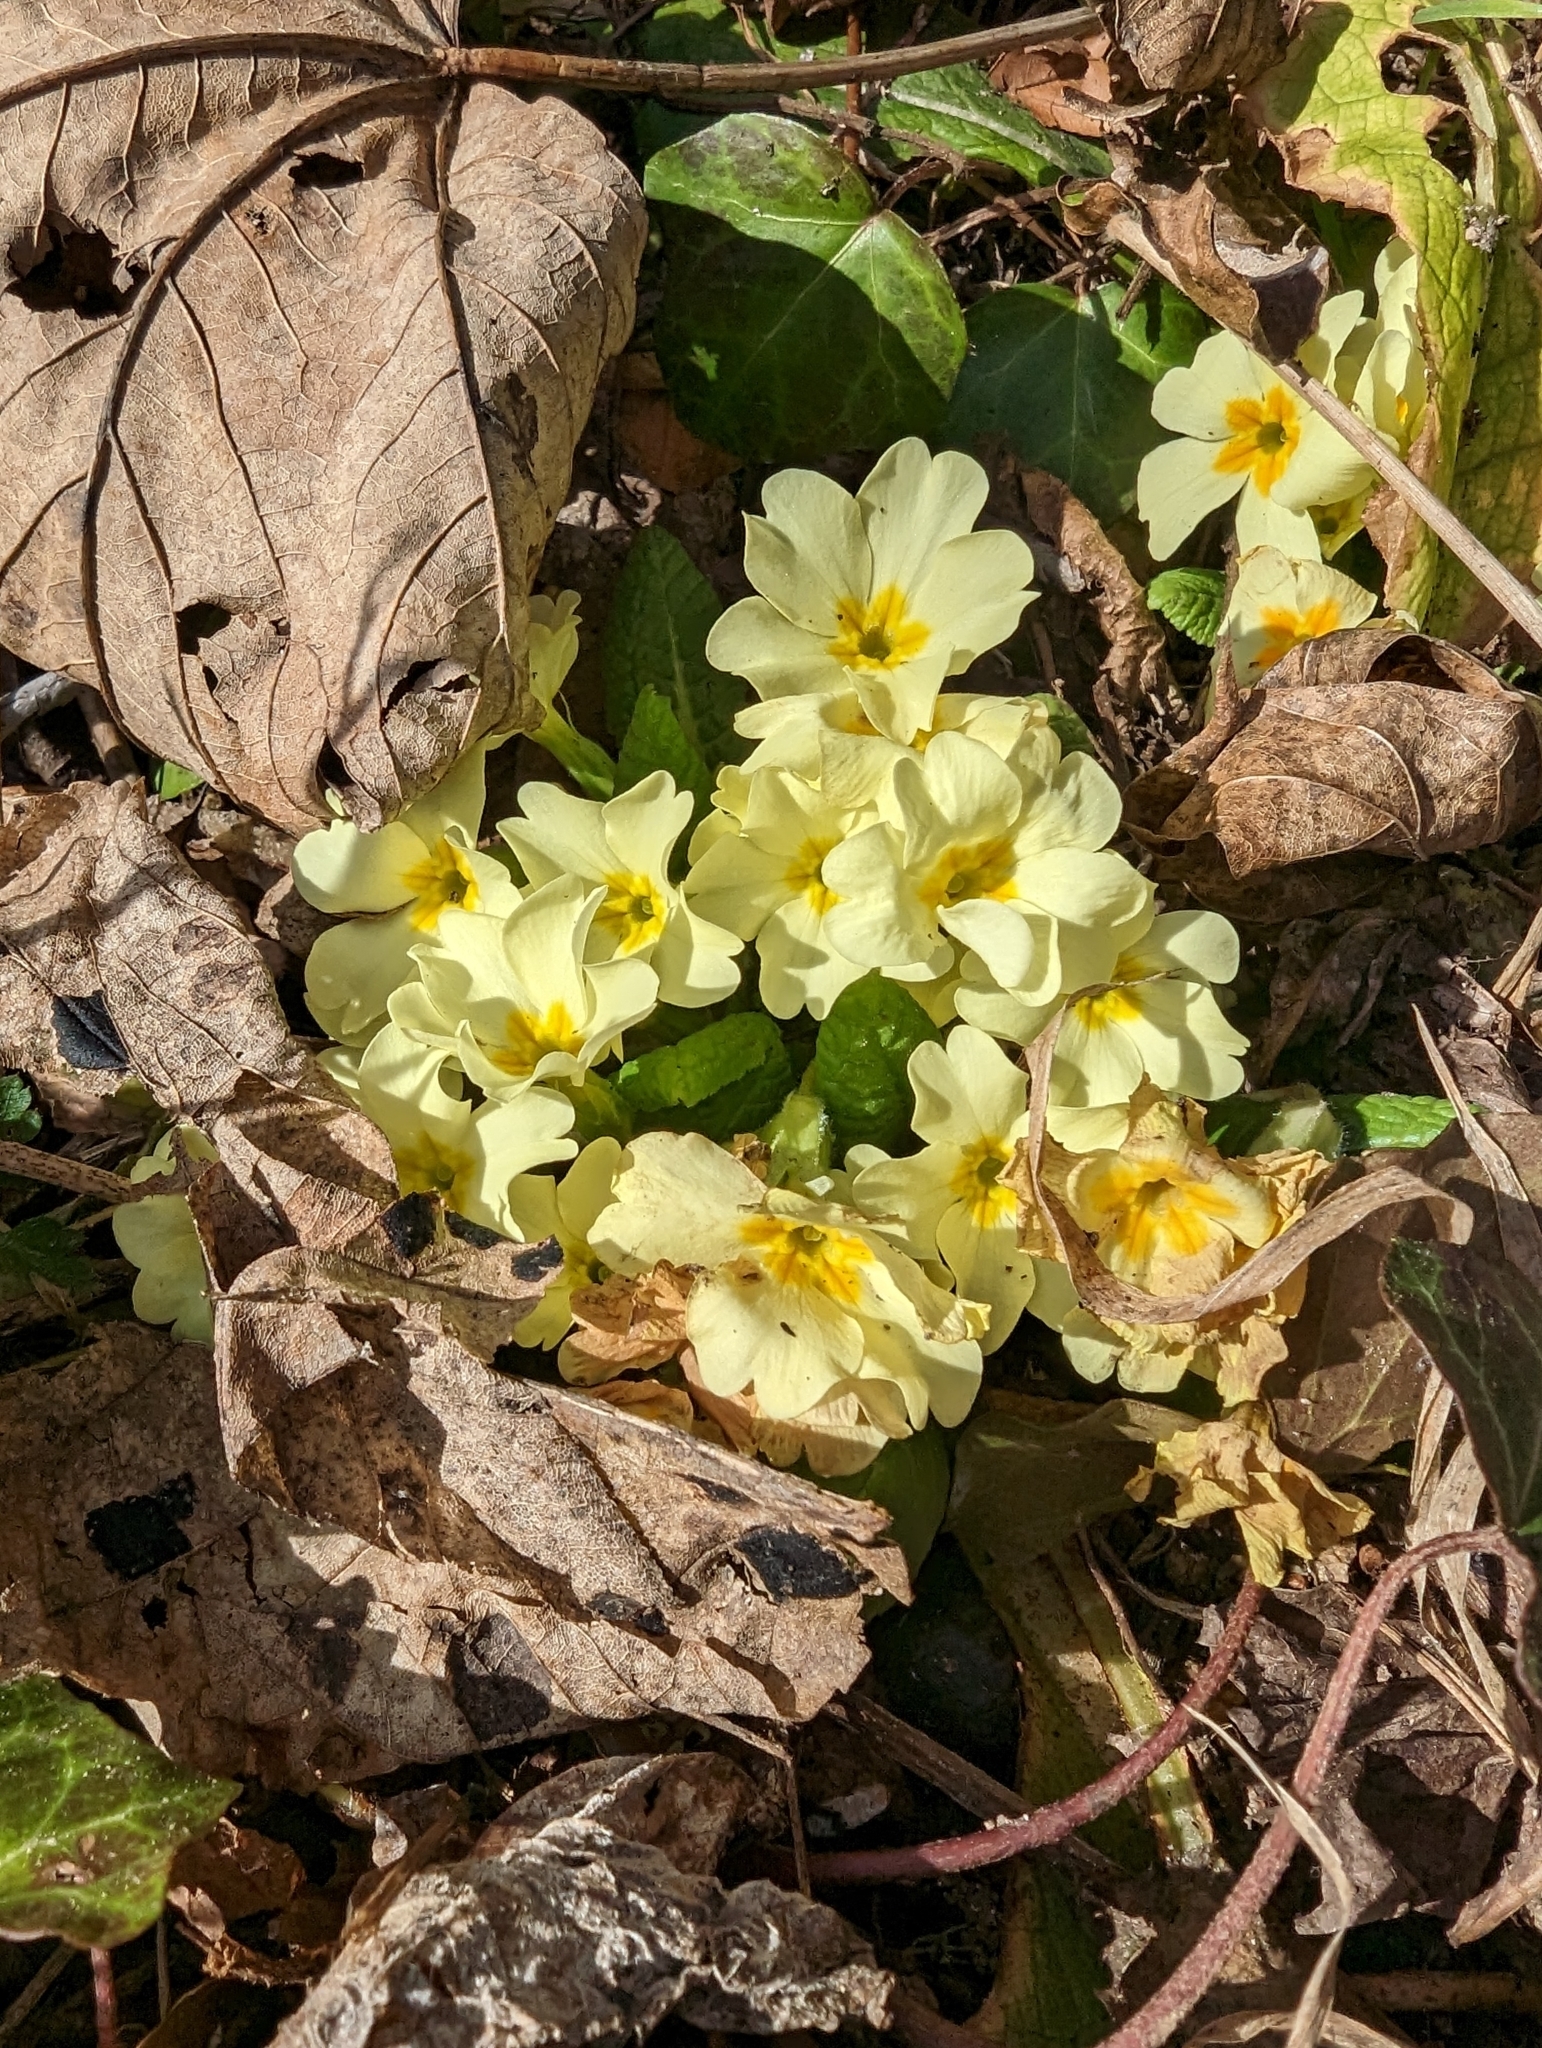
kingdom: Plantae
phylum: Tracheophyta
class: Magnoliopsida
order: Ericales
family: Primulaceae
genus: Primula
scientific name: Primula vulgaris
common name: Primrose
